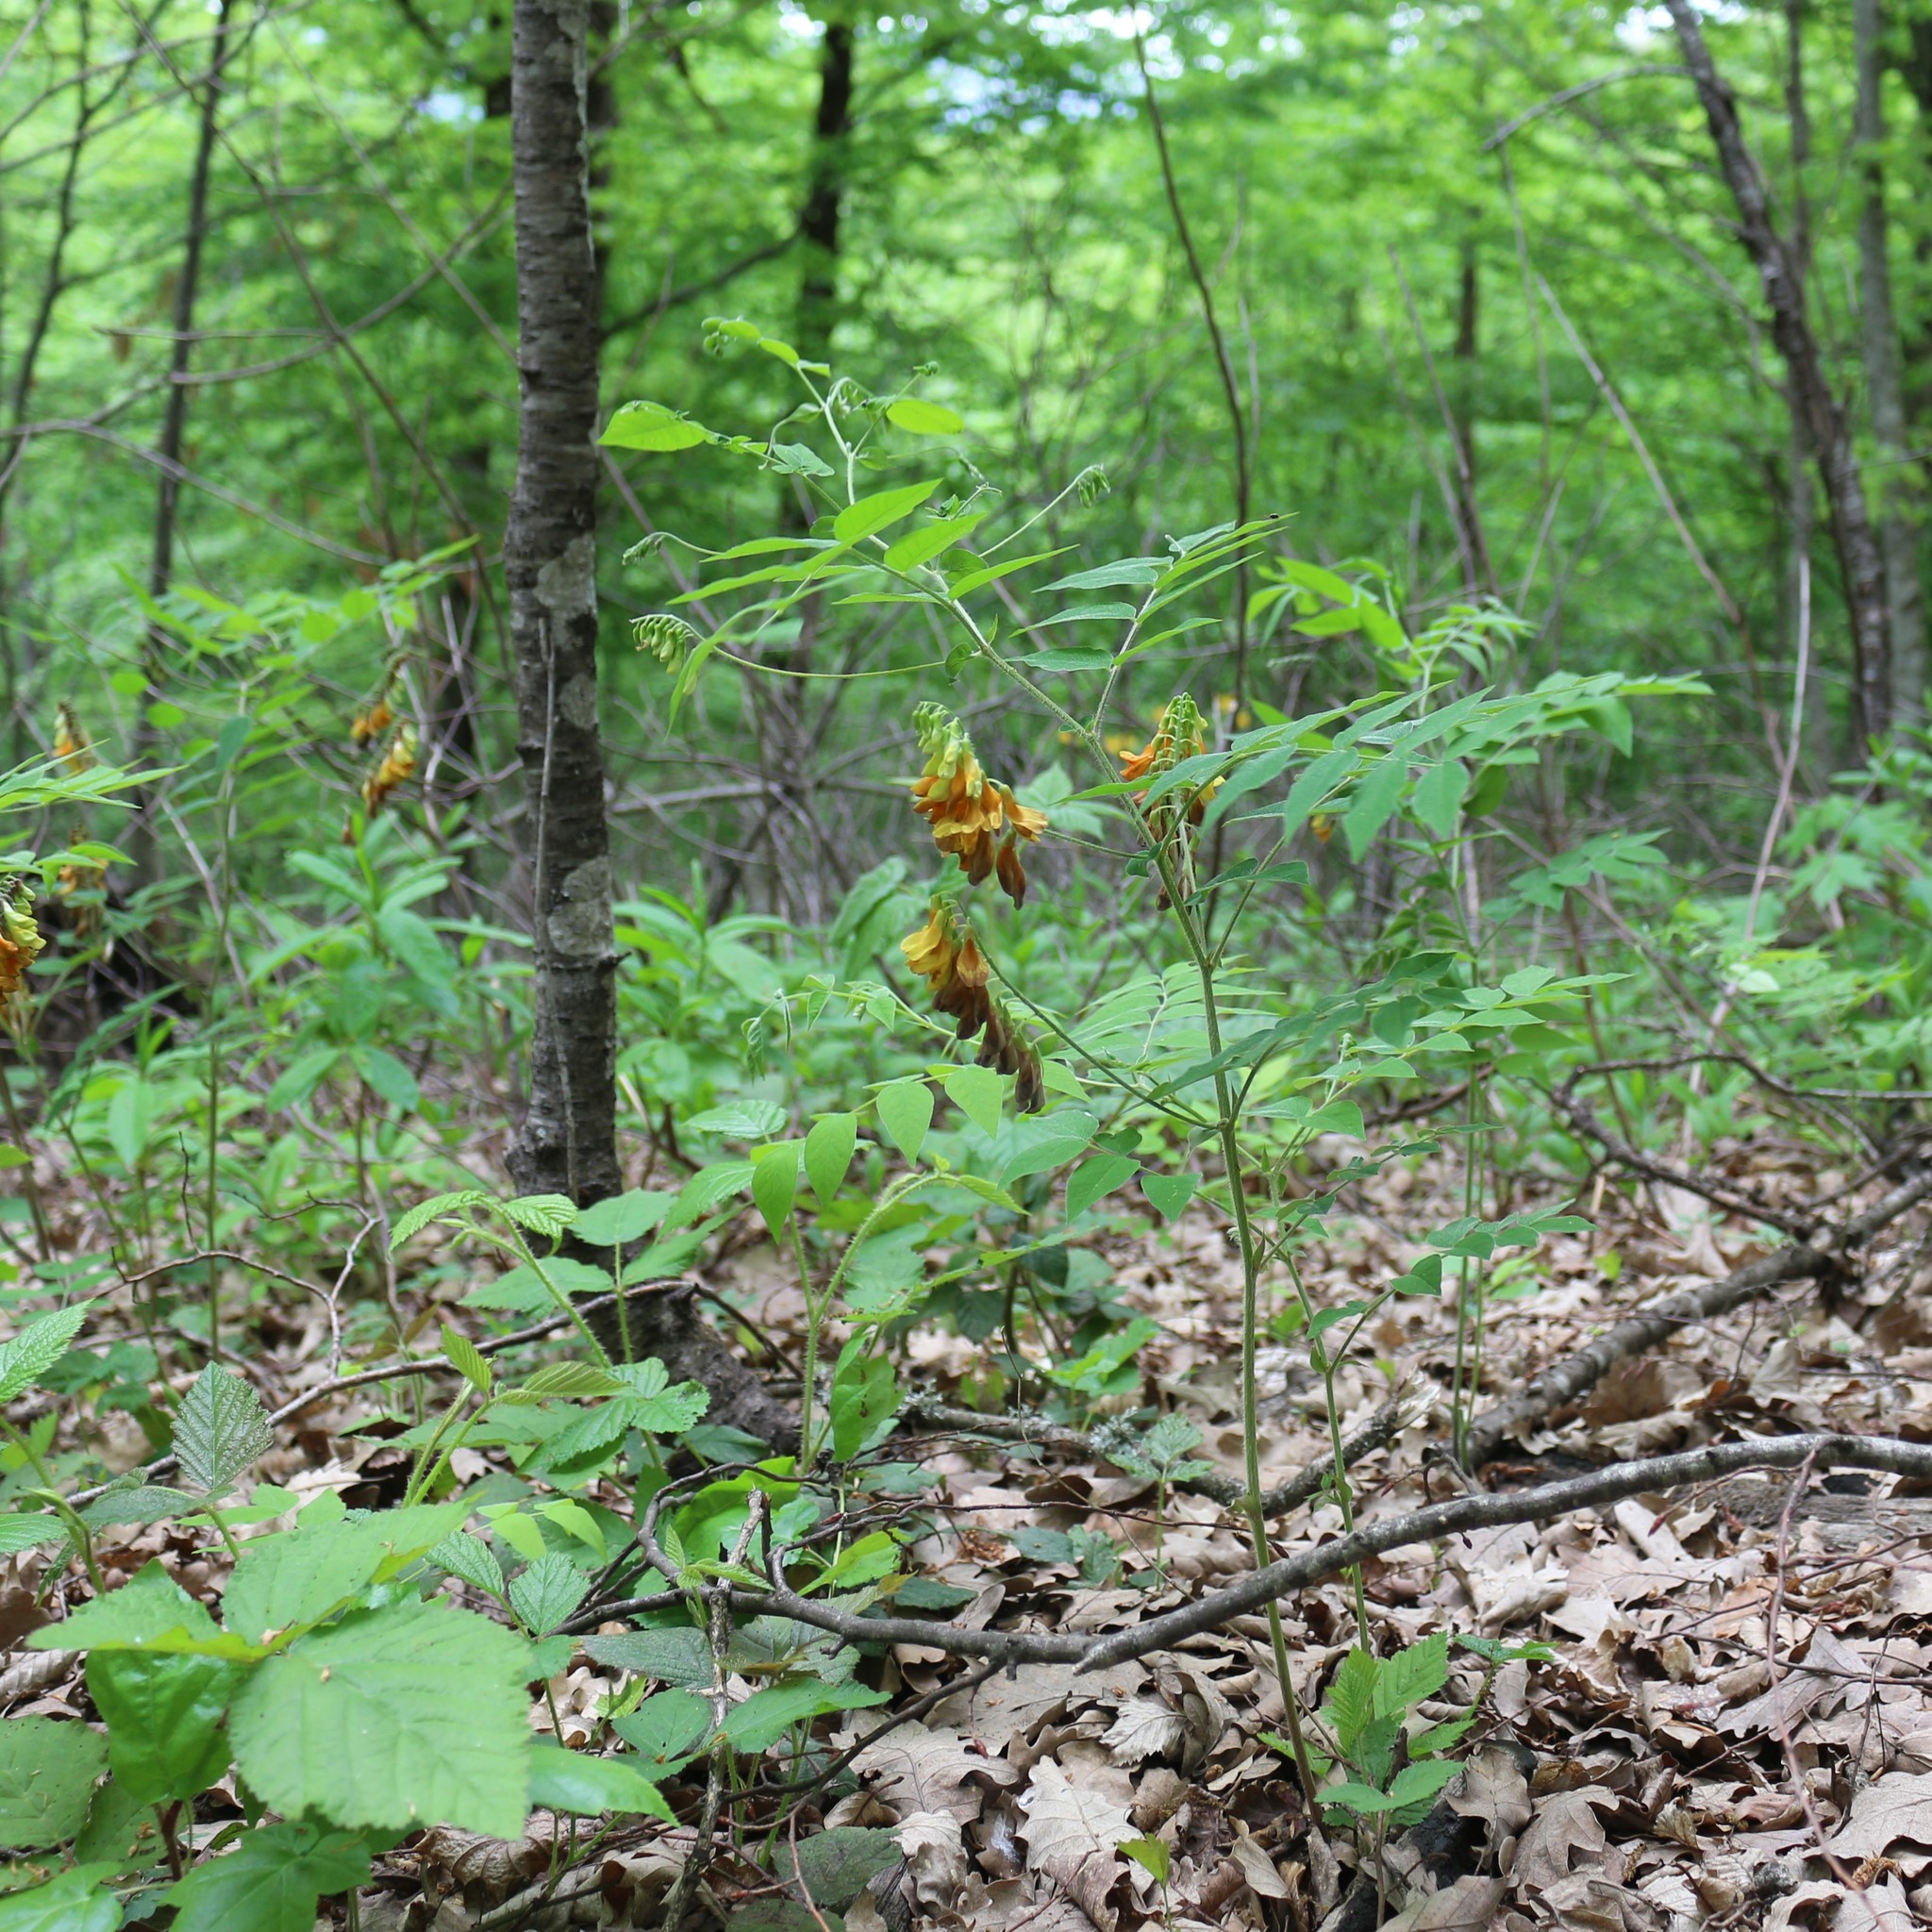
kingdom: Plantae
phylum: Tracheophyta
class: Magnoliopsida
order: Fabales
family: Fabaceae
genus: Vicia
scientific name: Vicia crocea
